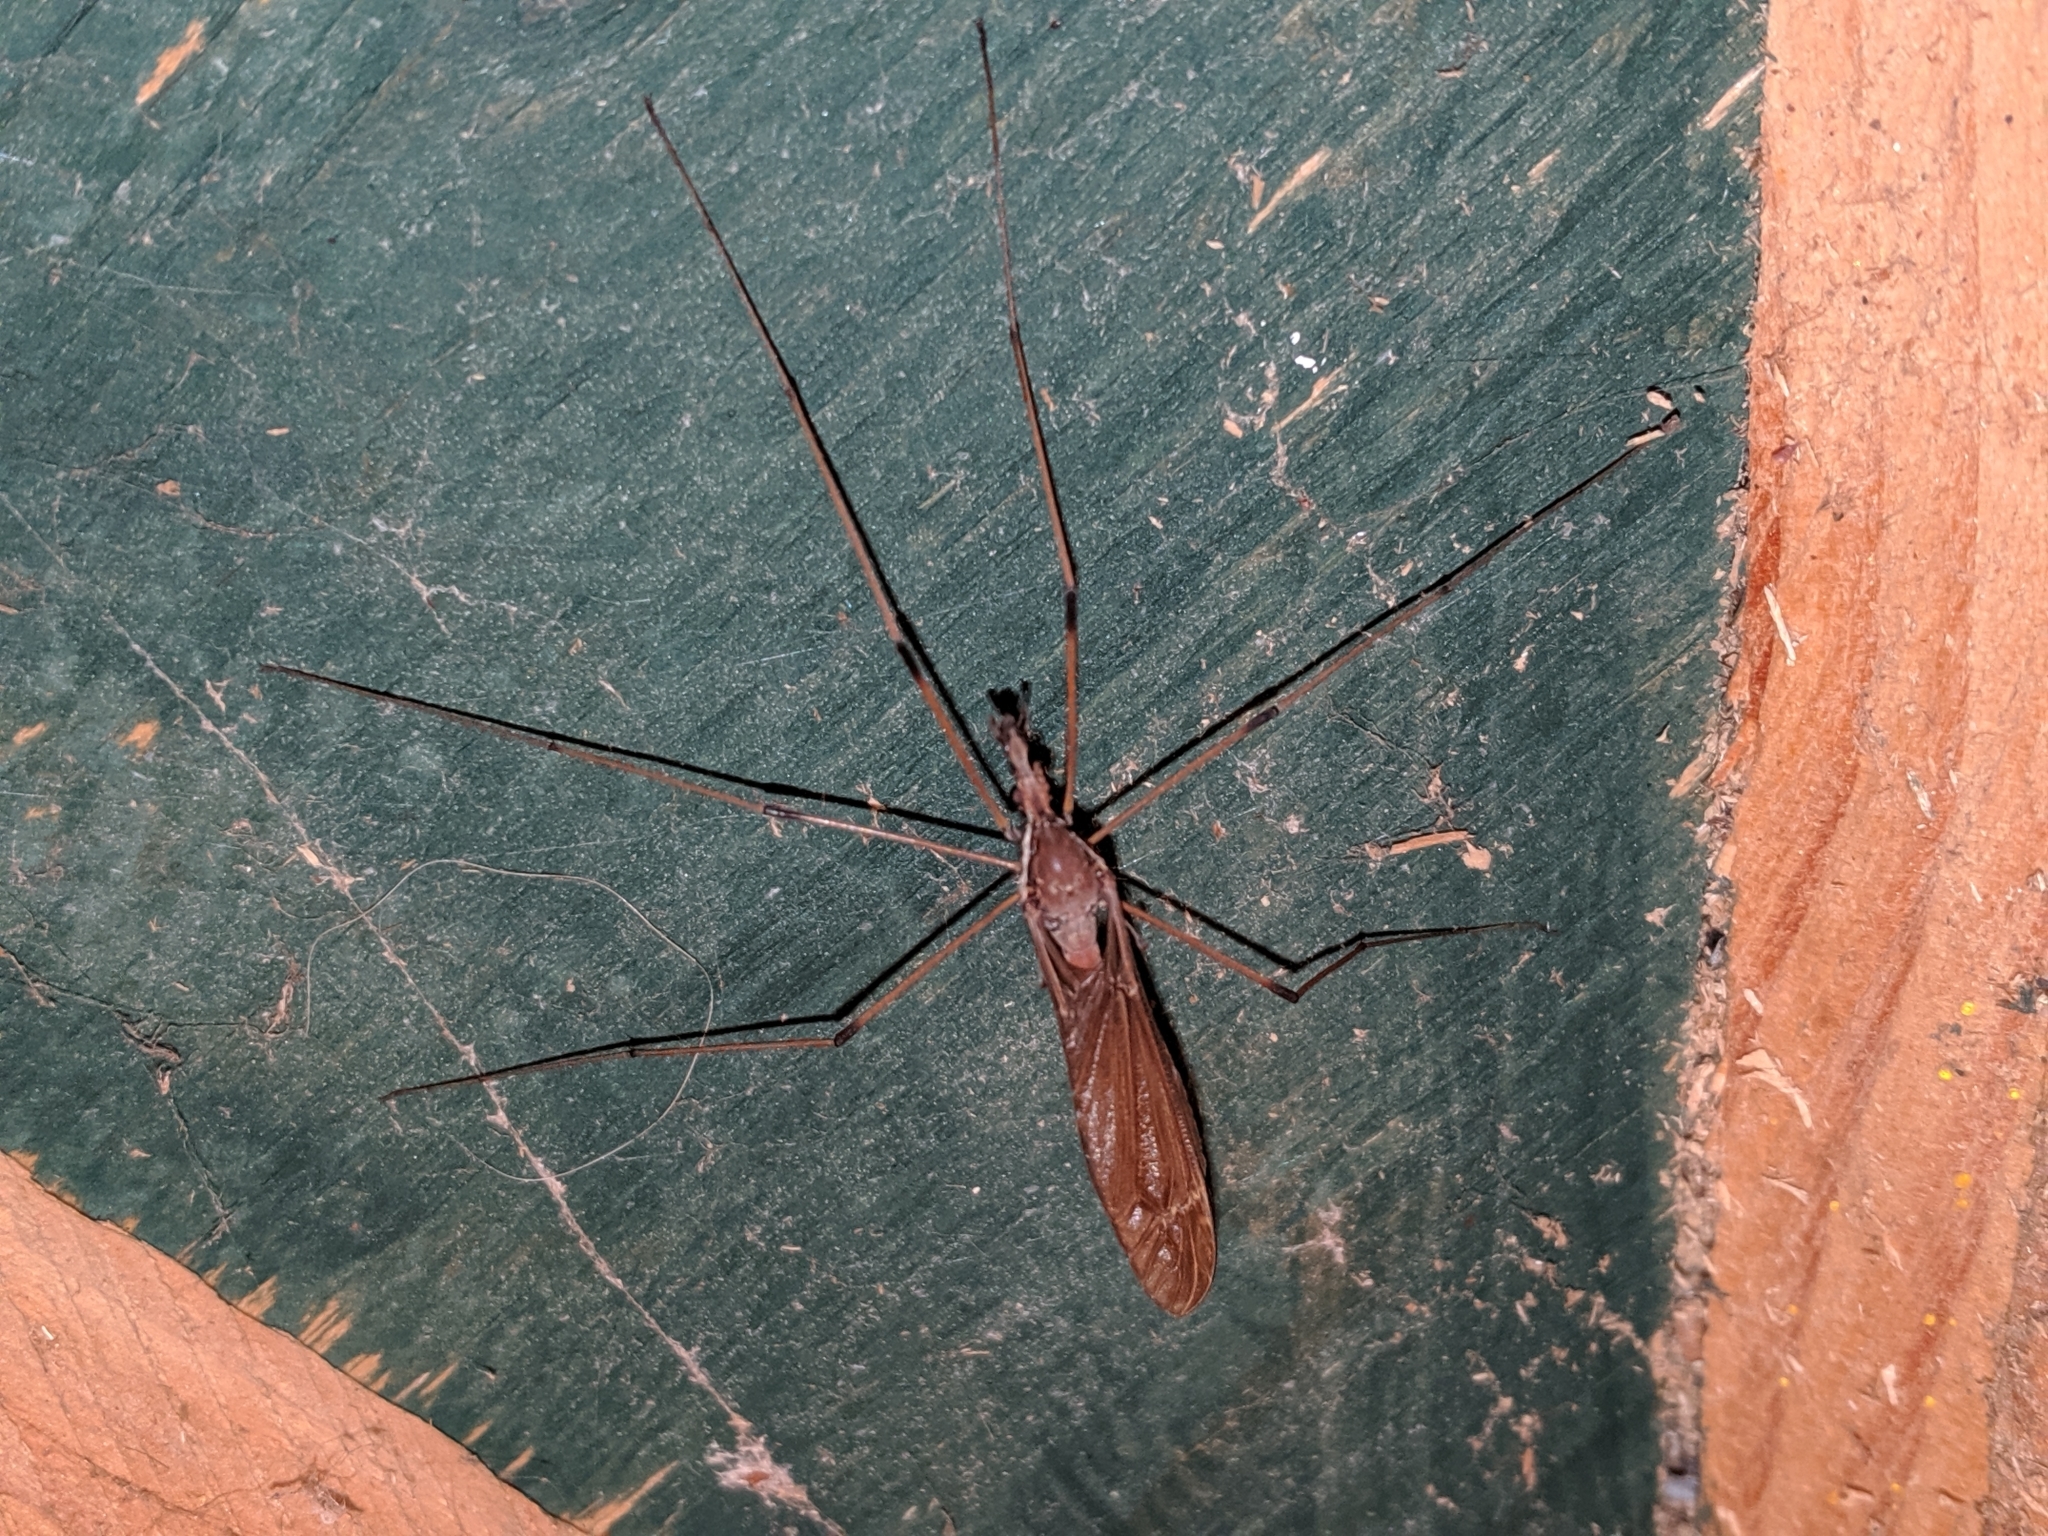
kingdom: Animalia
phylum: Arthropoda
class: Insecta
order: Diptera
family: Tipulidae
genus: Holorusia
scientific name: Holorusia hespera
